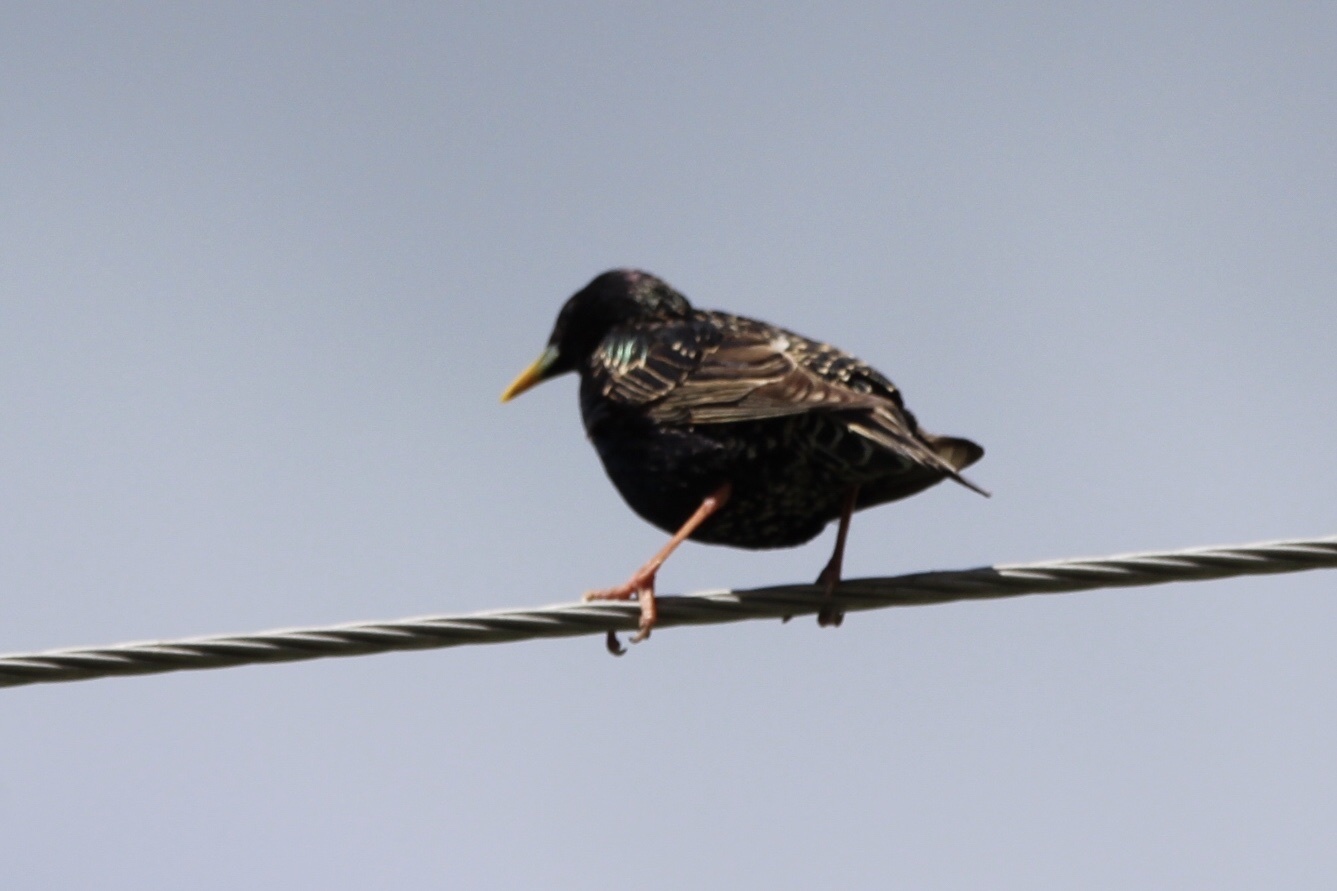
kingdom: Animalia
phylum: Chordata
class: Aves
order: Passeriformes
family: Sturnidae
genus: Sturnus
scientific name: Sturnus vulgaris
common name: Common starling
